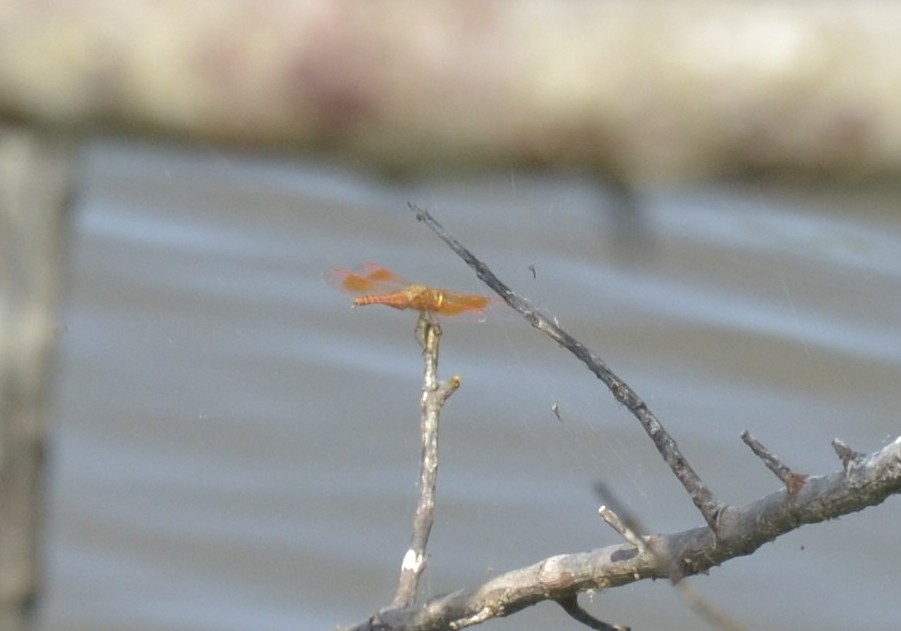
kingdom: Animalia
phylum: Arthropoda
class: Insecta
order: Odonata
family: Libellulidae
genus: Brachythemis
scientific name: Brachythemis contaminata
